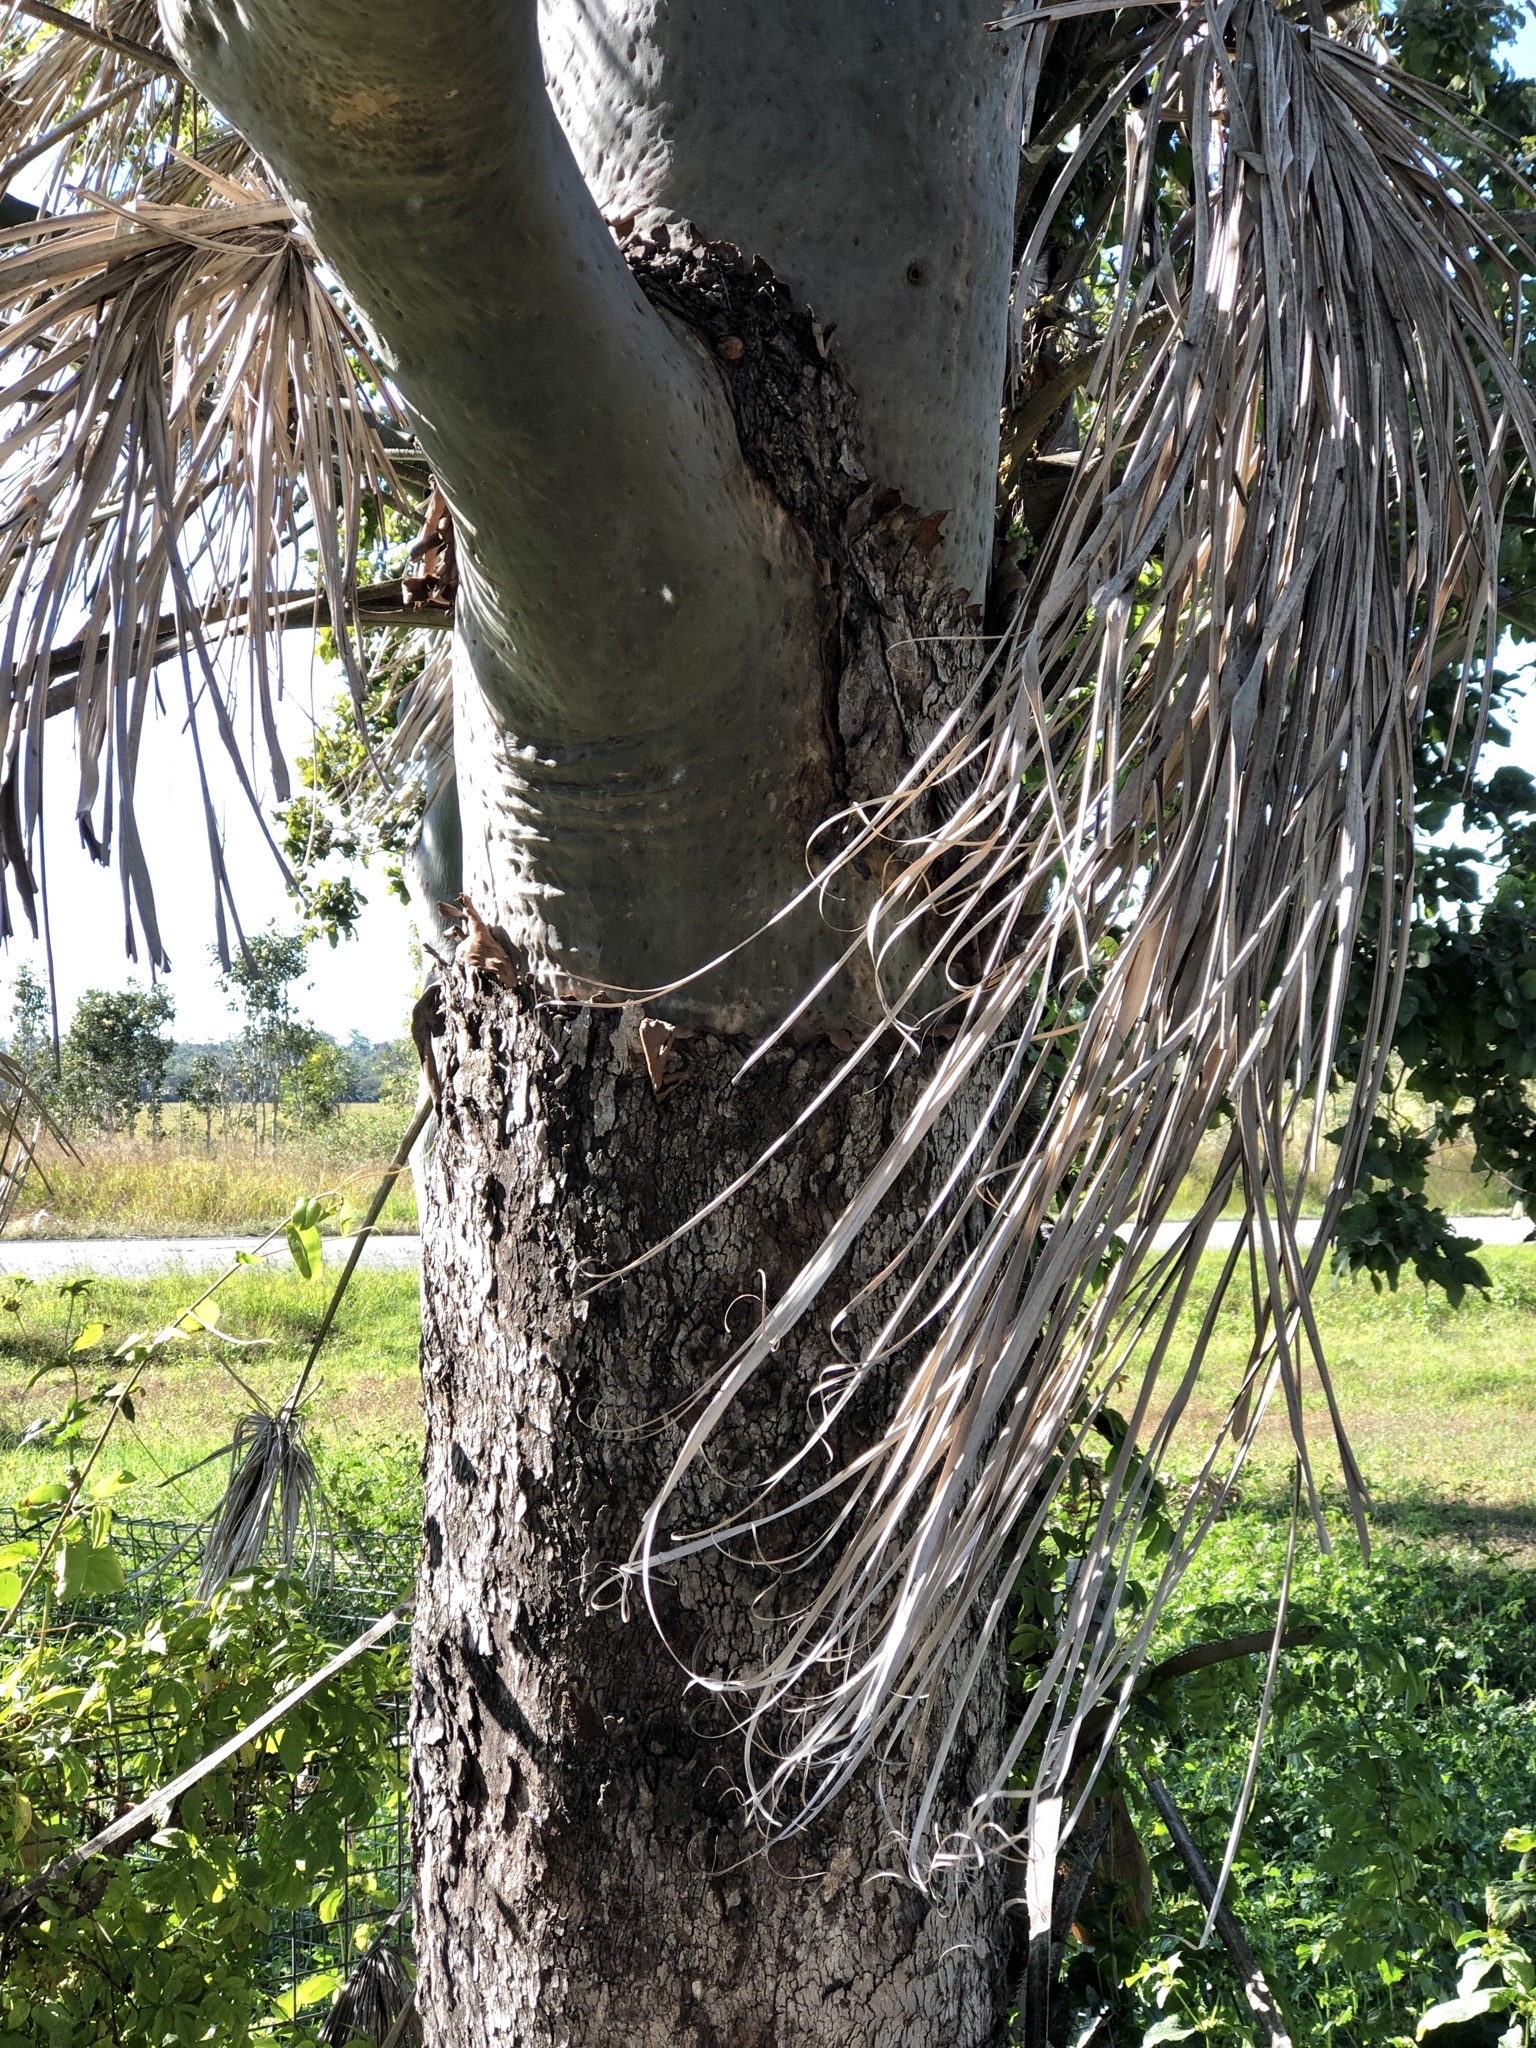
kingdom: Plantae
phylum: Tracheophyta
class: Magnoliopsida
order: Myrtales
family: Myrtaceae
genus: Corymbia
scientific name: Corymbia torelliana
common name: Cadaghi
